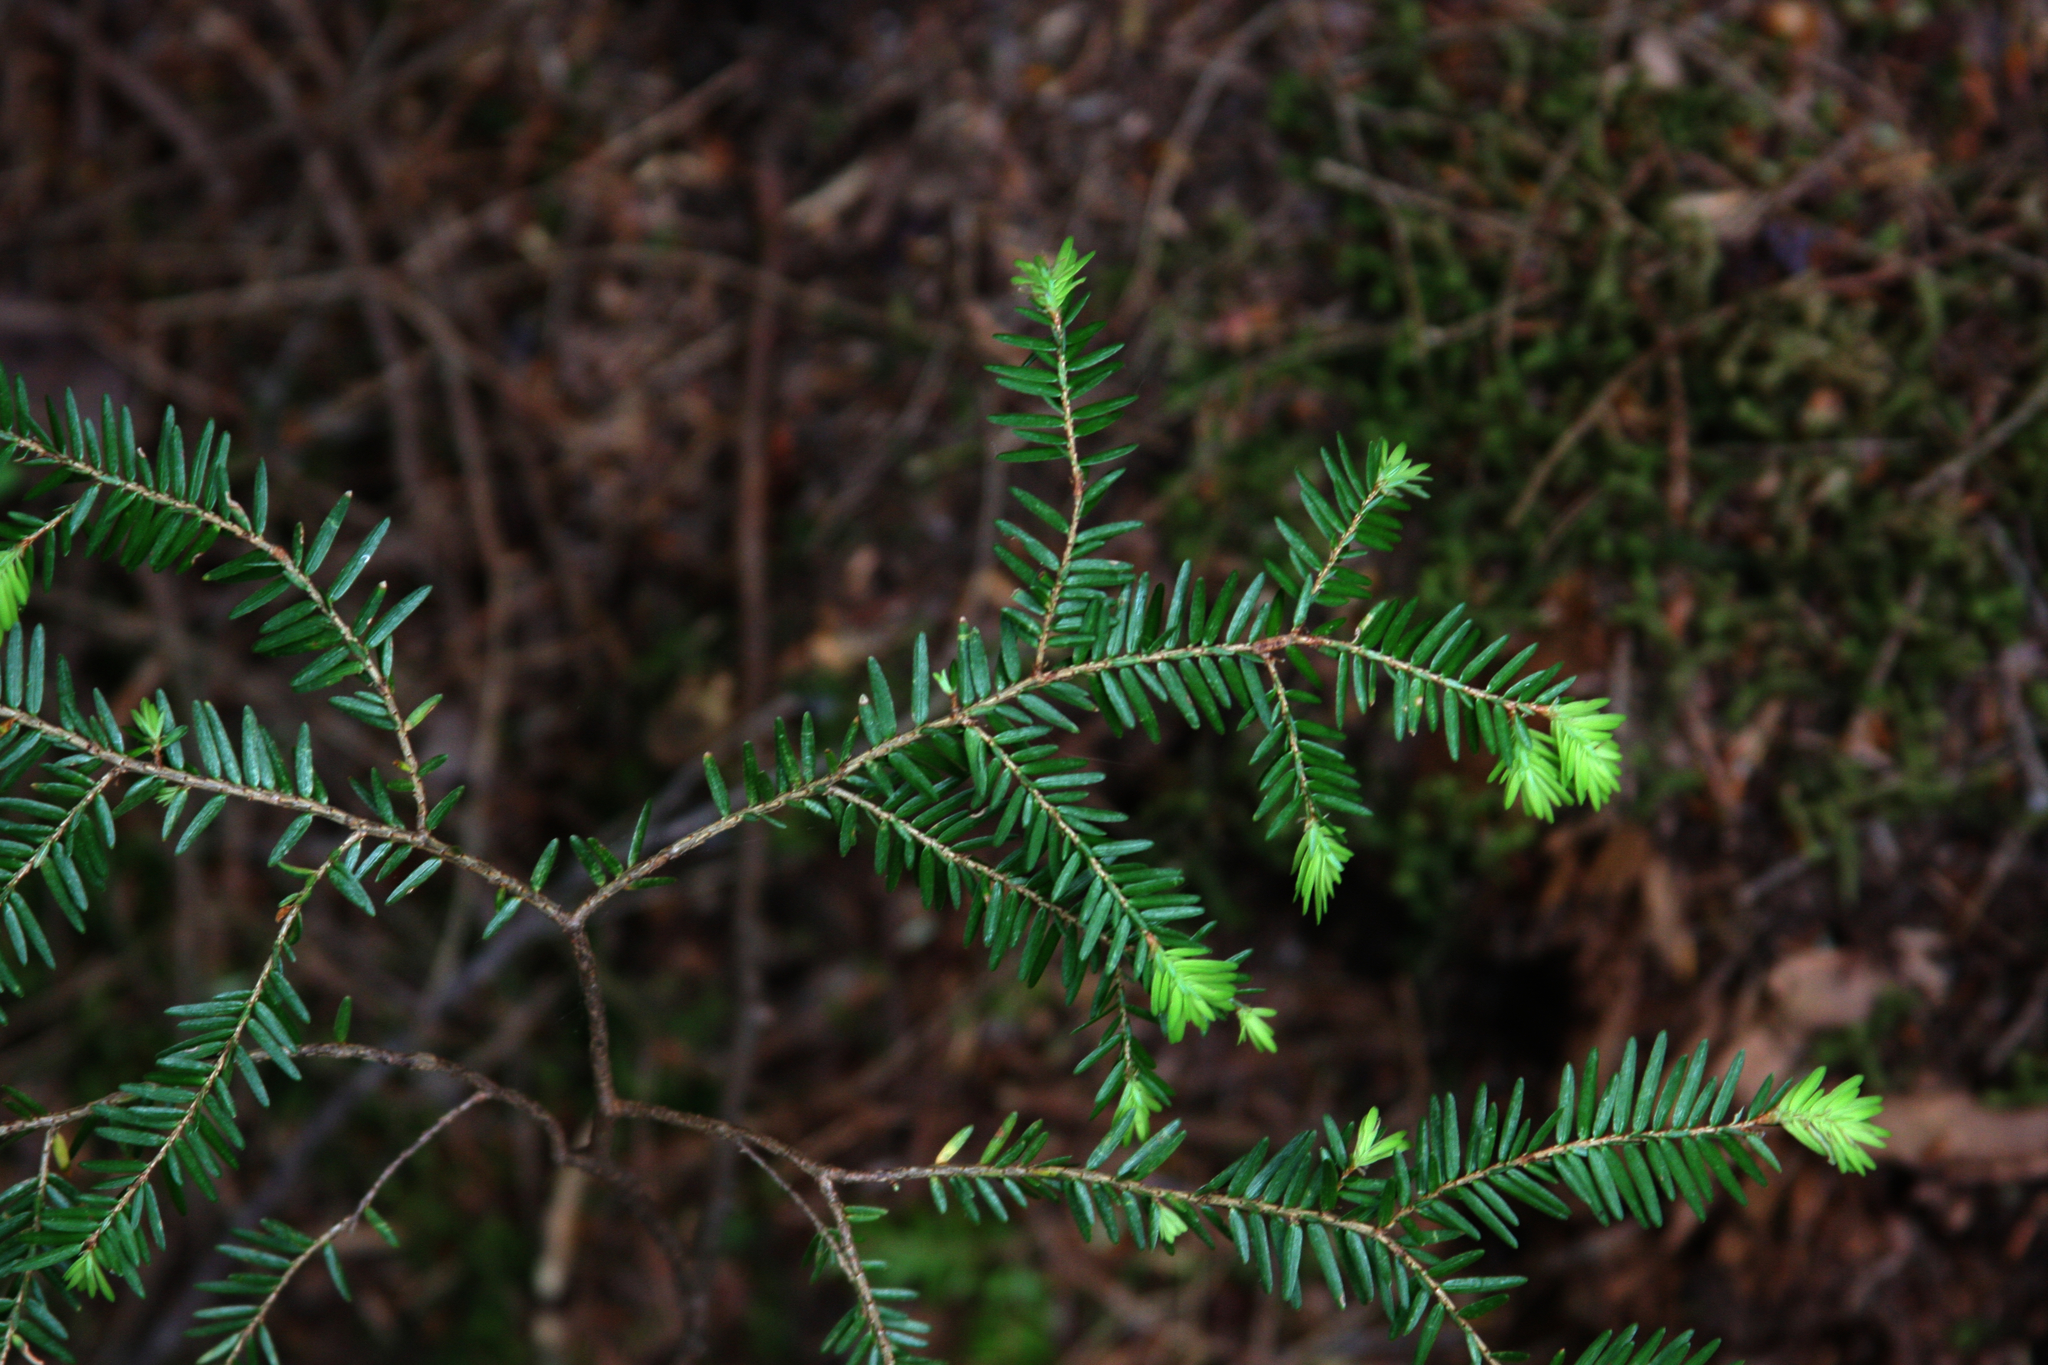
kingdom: Plantae
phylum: Tracheophyta
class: Pinopsida
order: Pinales
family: Pinaceae
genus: Tsuga
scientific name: Tsuga canadensis
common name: Eastern hemlock
